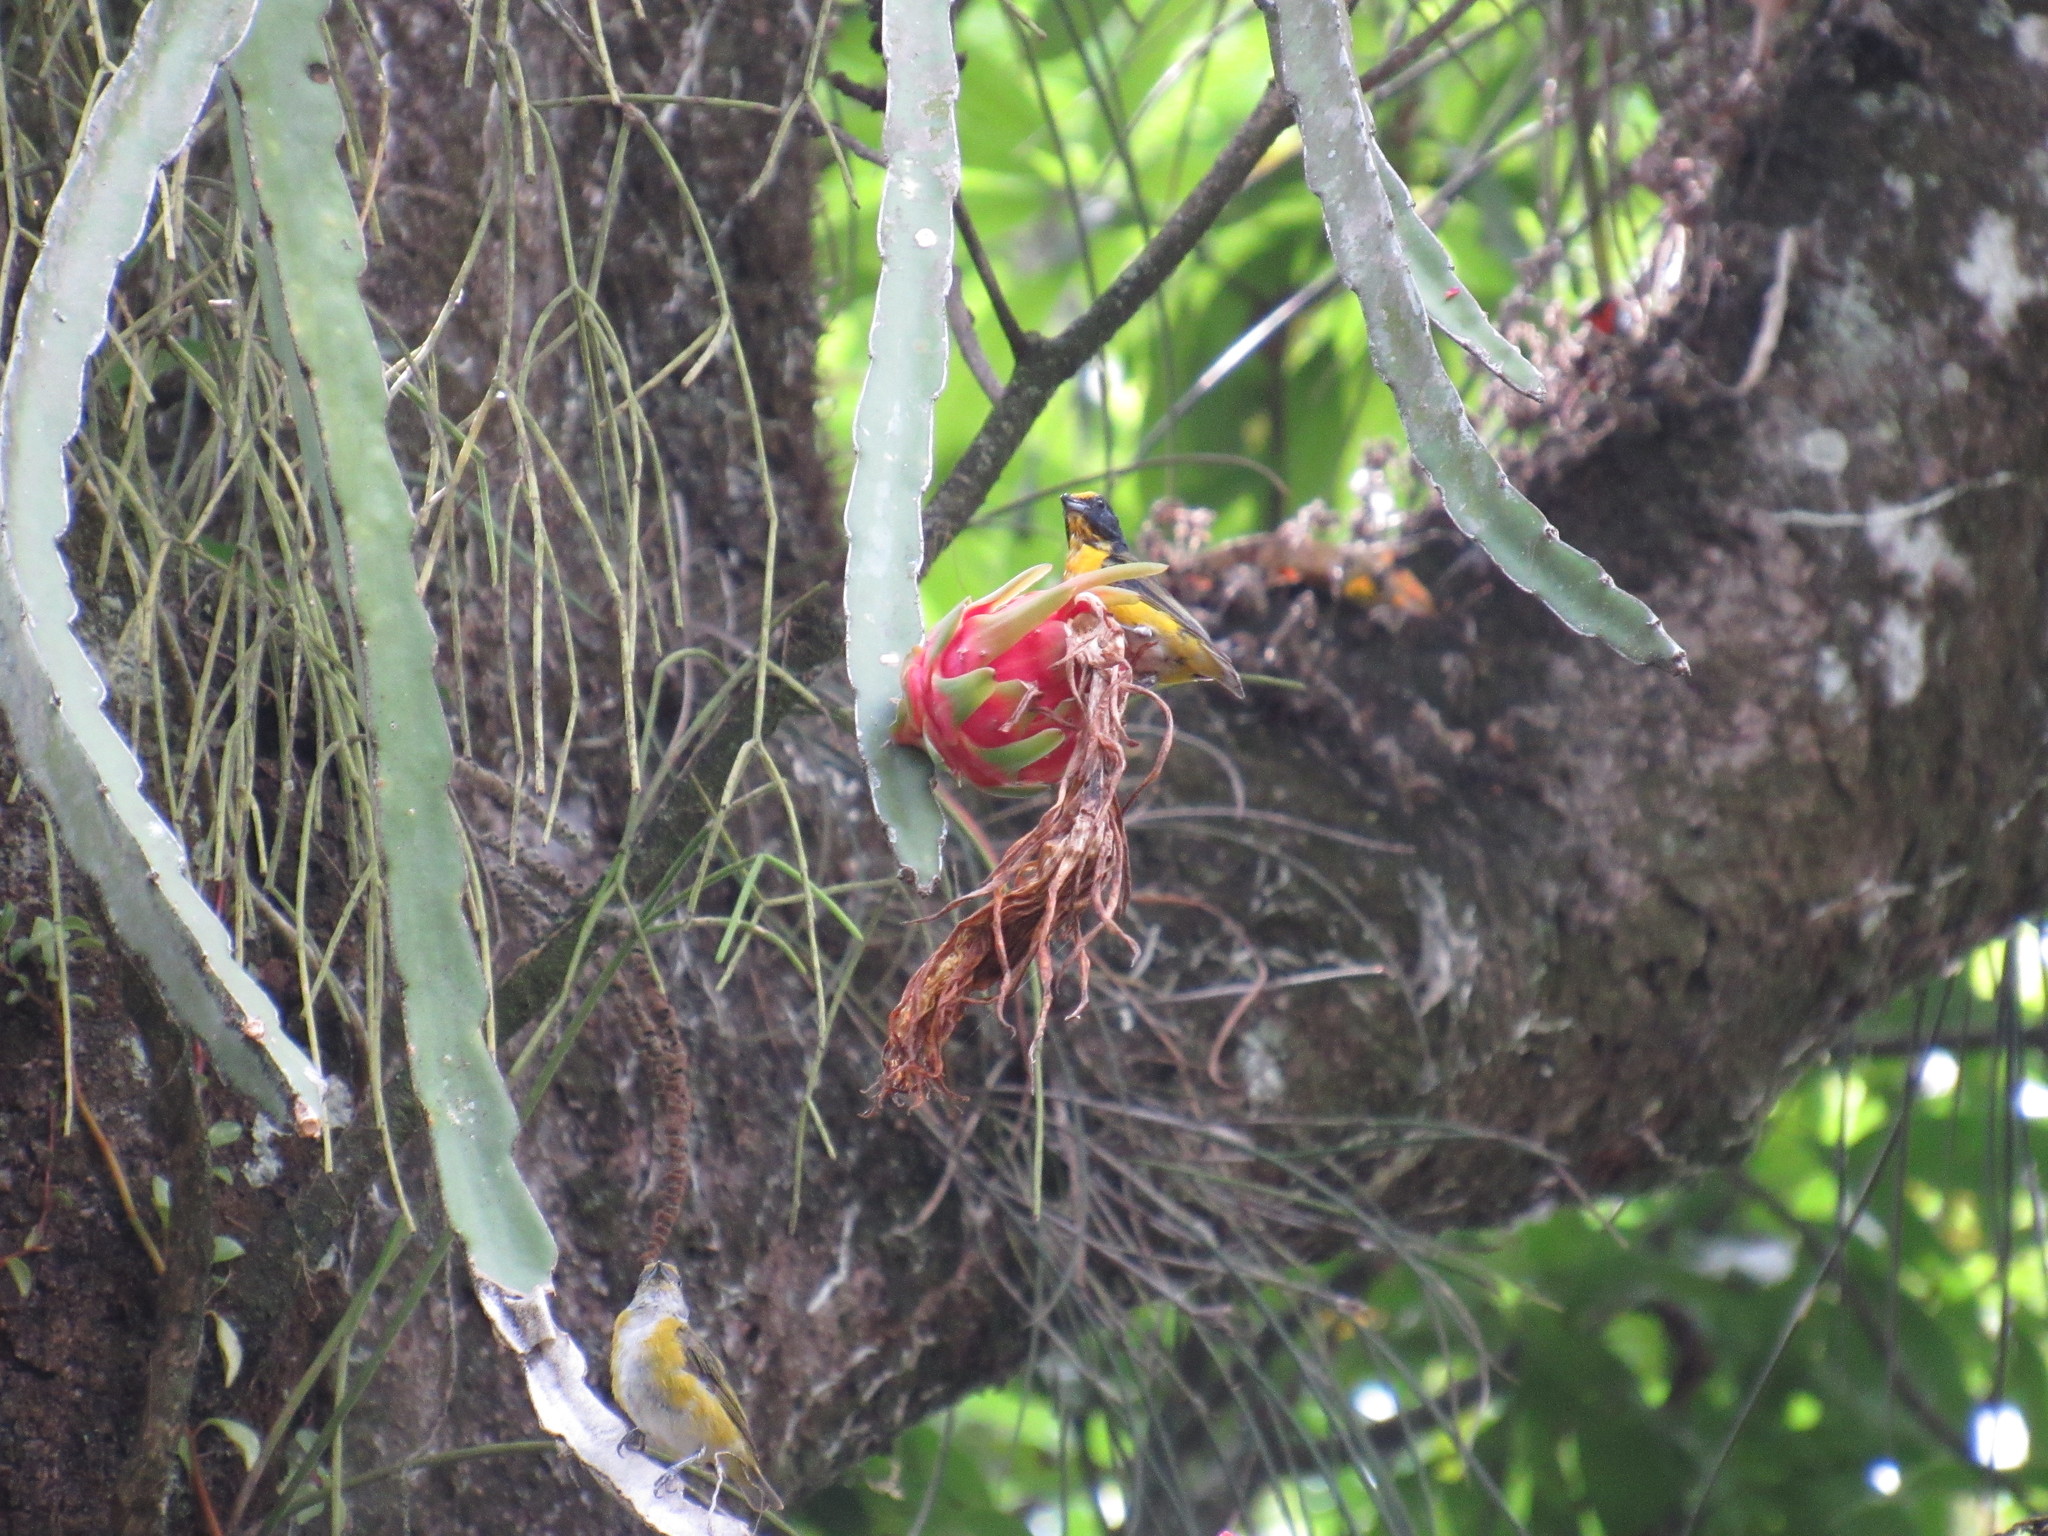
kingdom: Animalia
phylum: Chordata
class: Aves
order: Passeriformes
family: Fringillidae
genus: Euphonia
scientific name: Euphonia hirundinacea
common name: Yellow-throated euphonia
